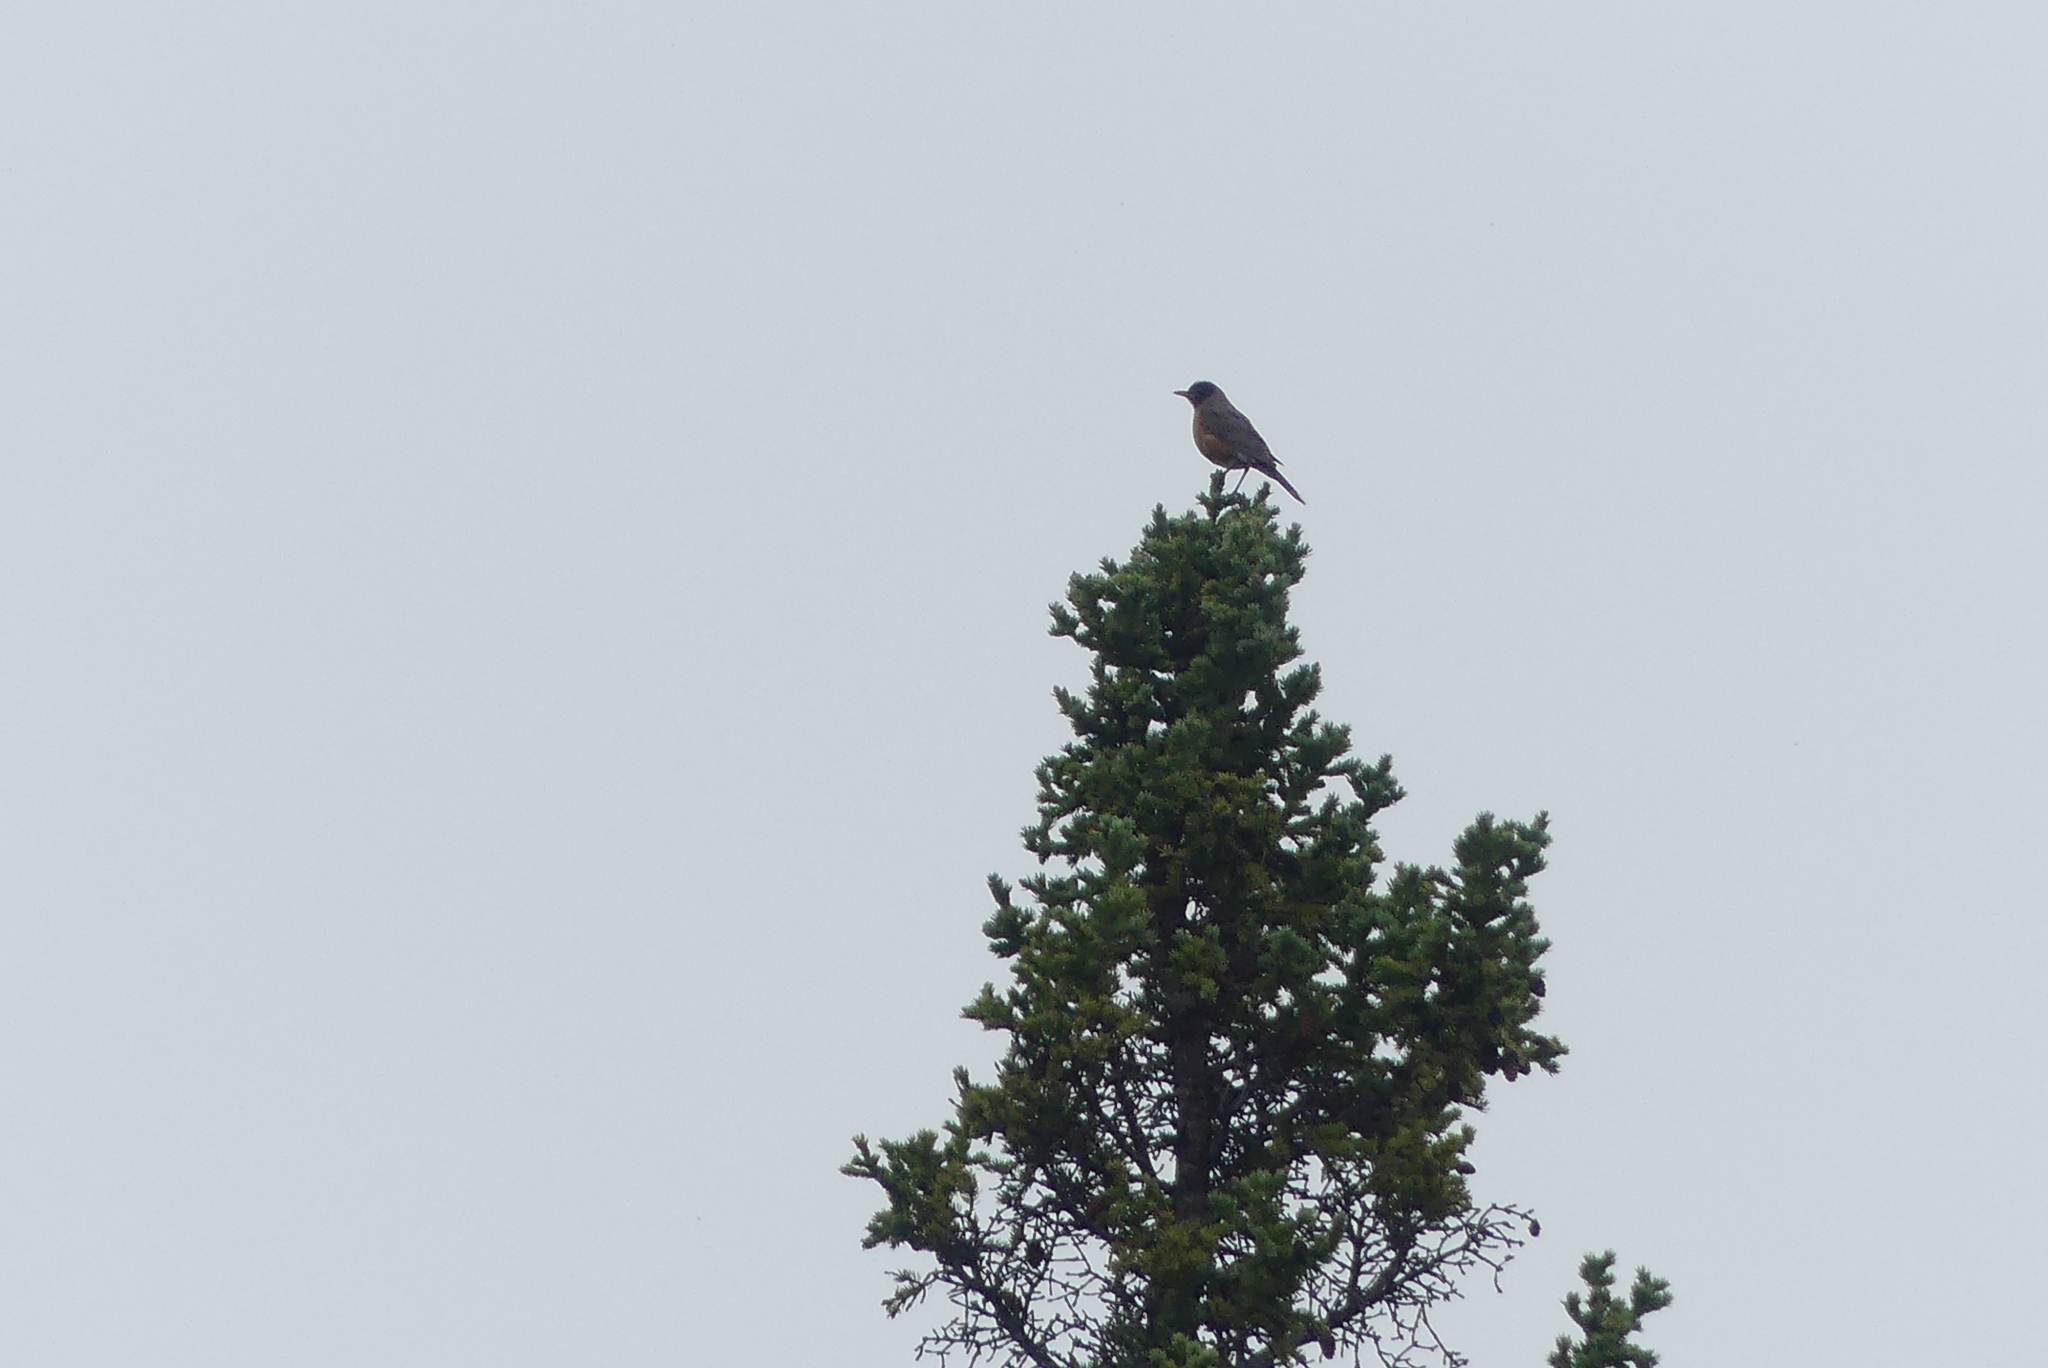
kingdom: Animalia
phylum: Chordata
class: Aves
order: Passeriformes
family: Turdidae
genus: Turdus
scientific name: Turdus migratorius
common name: American robin
